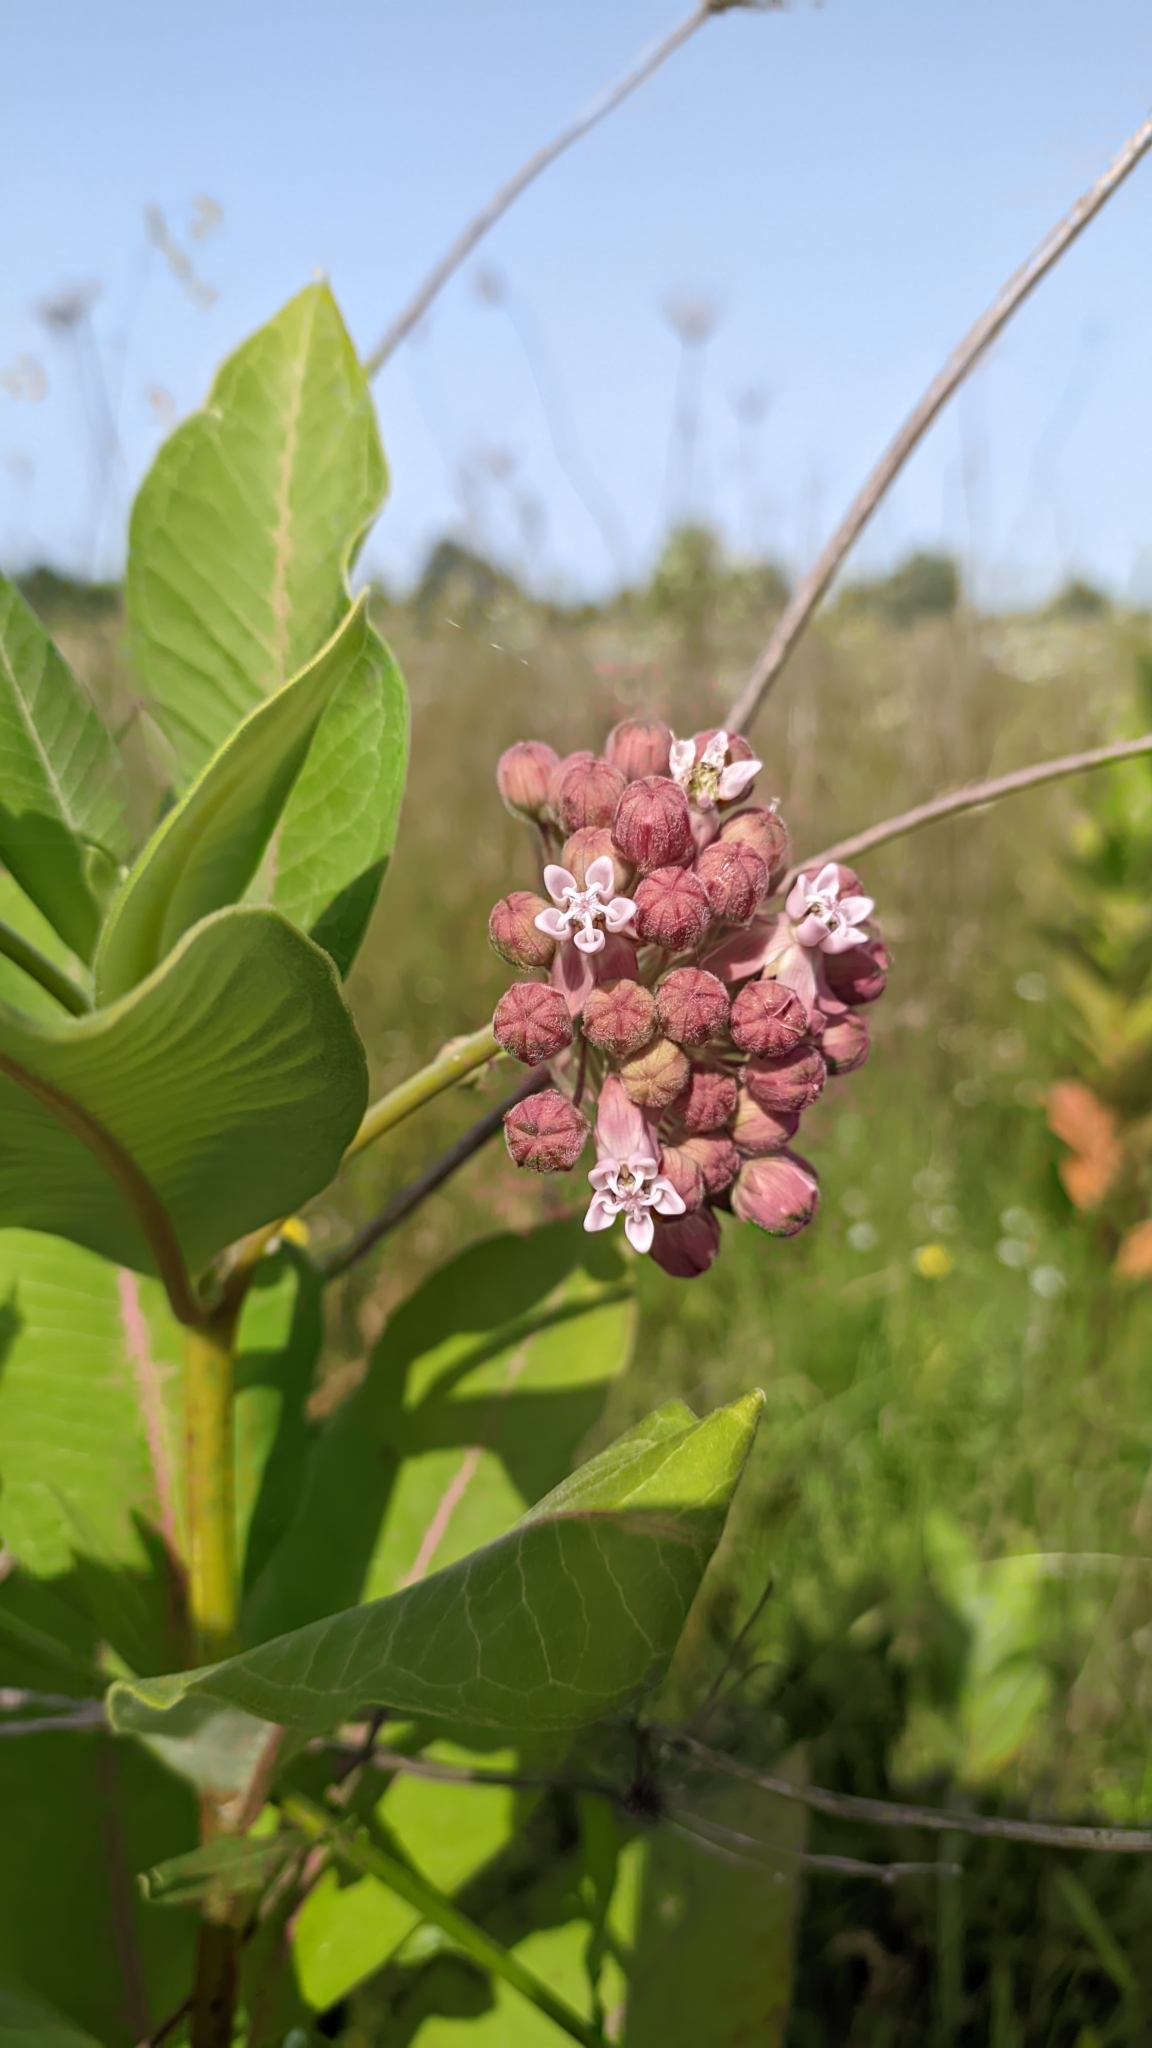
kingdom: Plantae
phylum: Tracheophyta
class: Magnoliopsida
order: Gentianales
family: Apocynaceae
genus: Asclepias
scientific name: Asclepias syriaca
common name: Common milkweed
